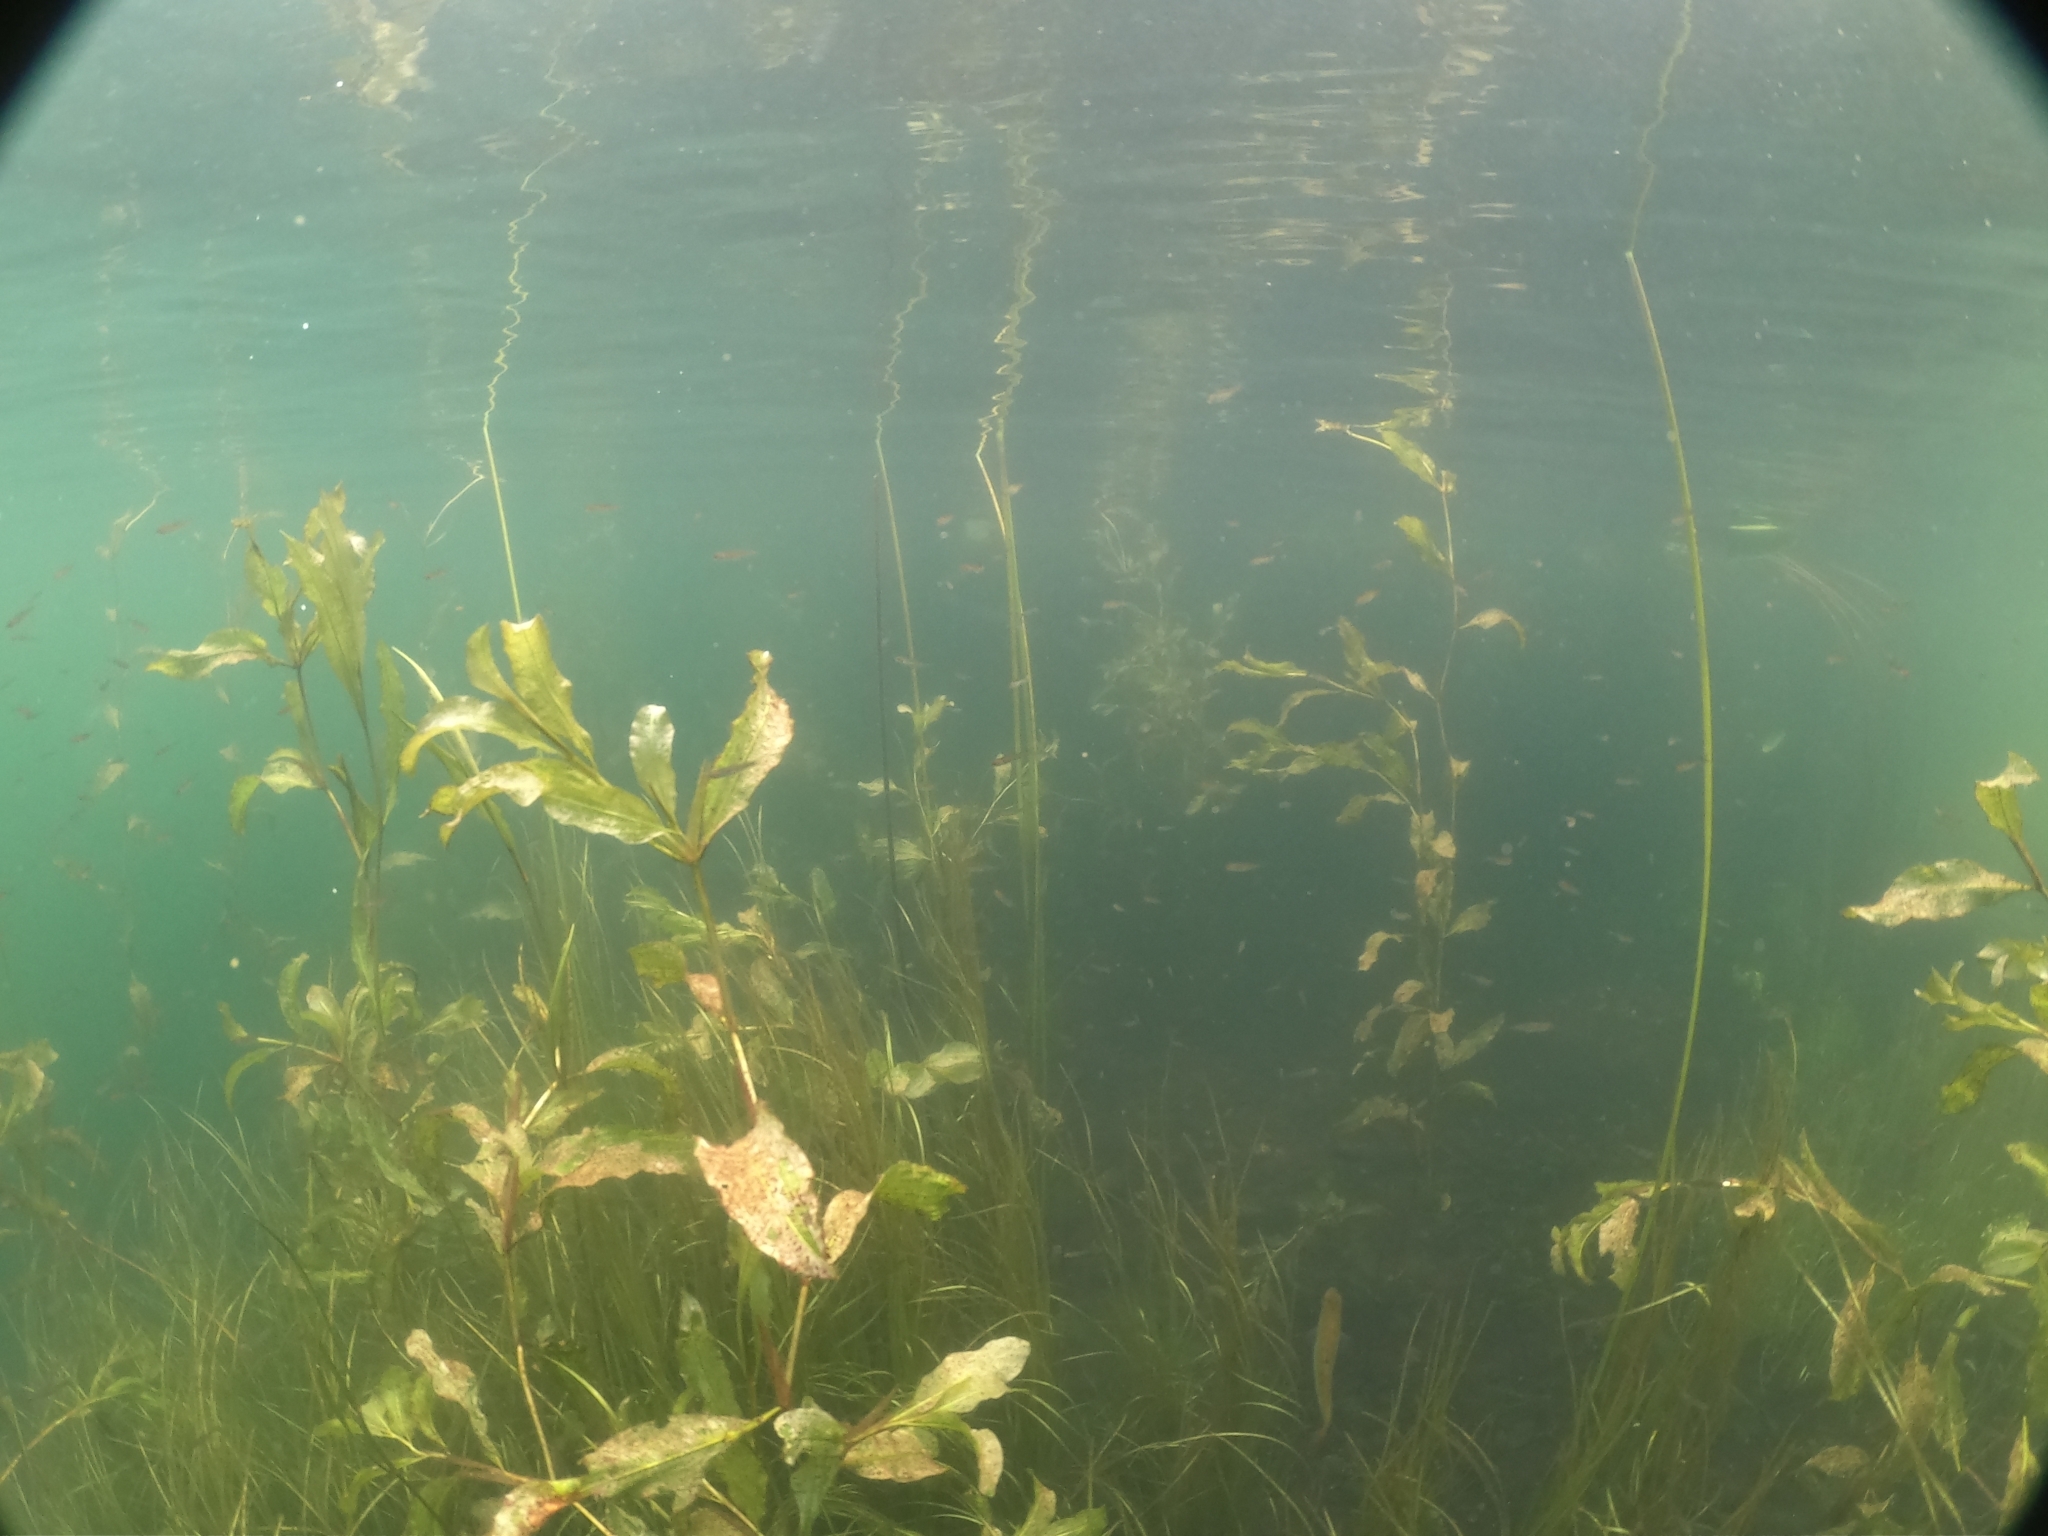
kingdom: Plantae
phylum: Tracheophyta
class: Liliopsida
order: Alismatales
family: Potamogetonaceae
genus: Potamogeton
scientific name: Potamogeton lucens
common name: Shining pondweed
